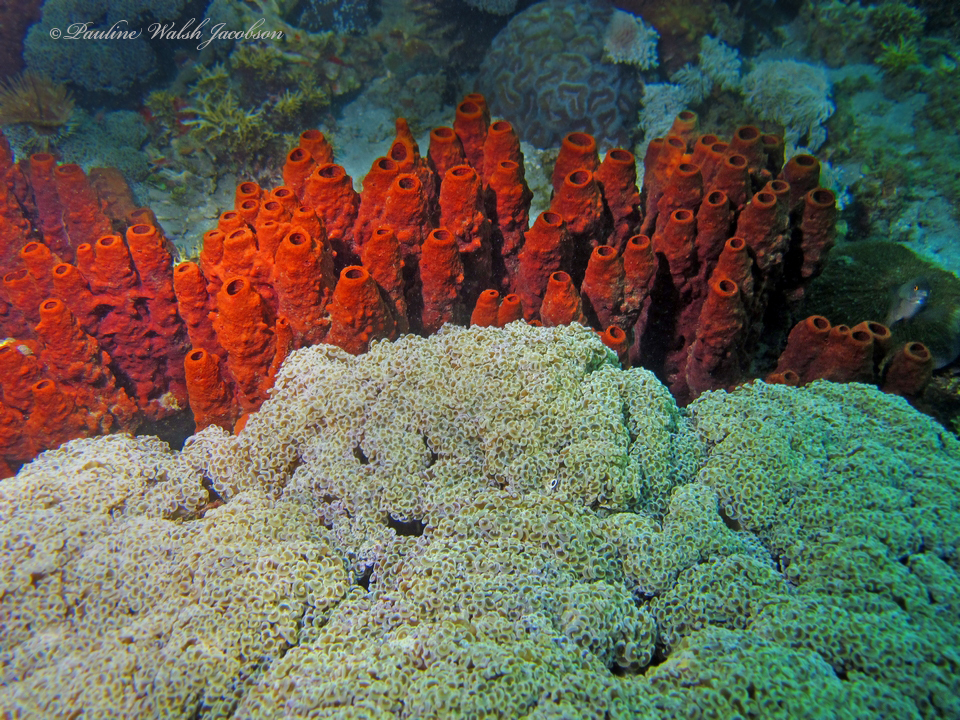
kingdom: Animalia
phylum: Cnidaria
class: Anthozoa
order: Scleractinia
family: Euphylliidae
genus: Fimbriaphyllia
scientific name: Fimbriaphyllia ancora
